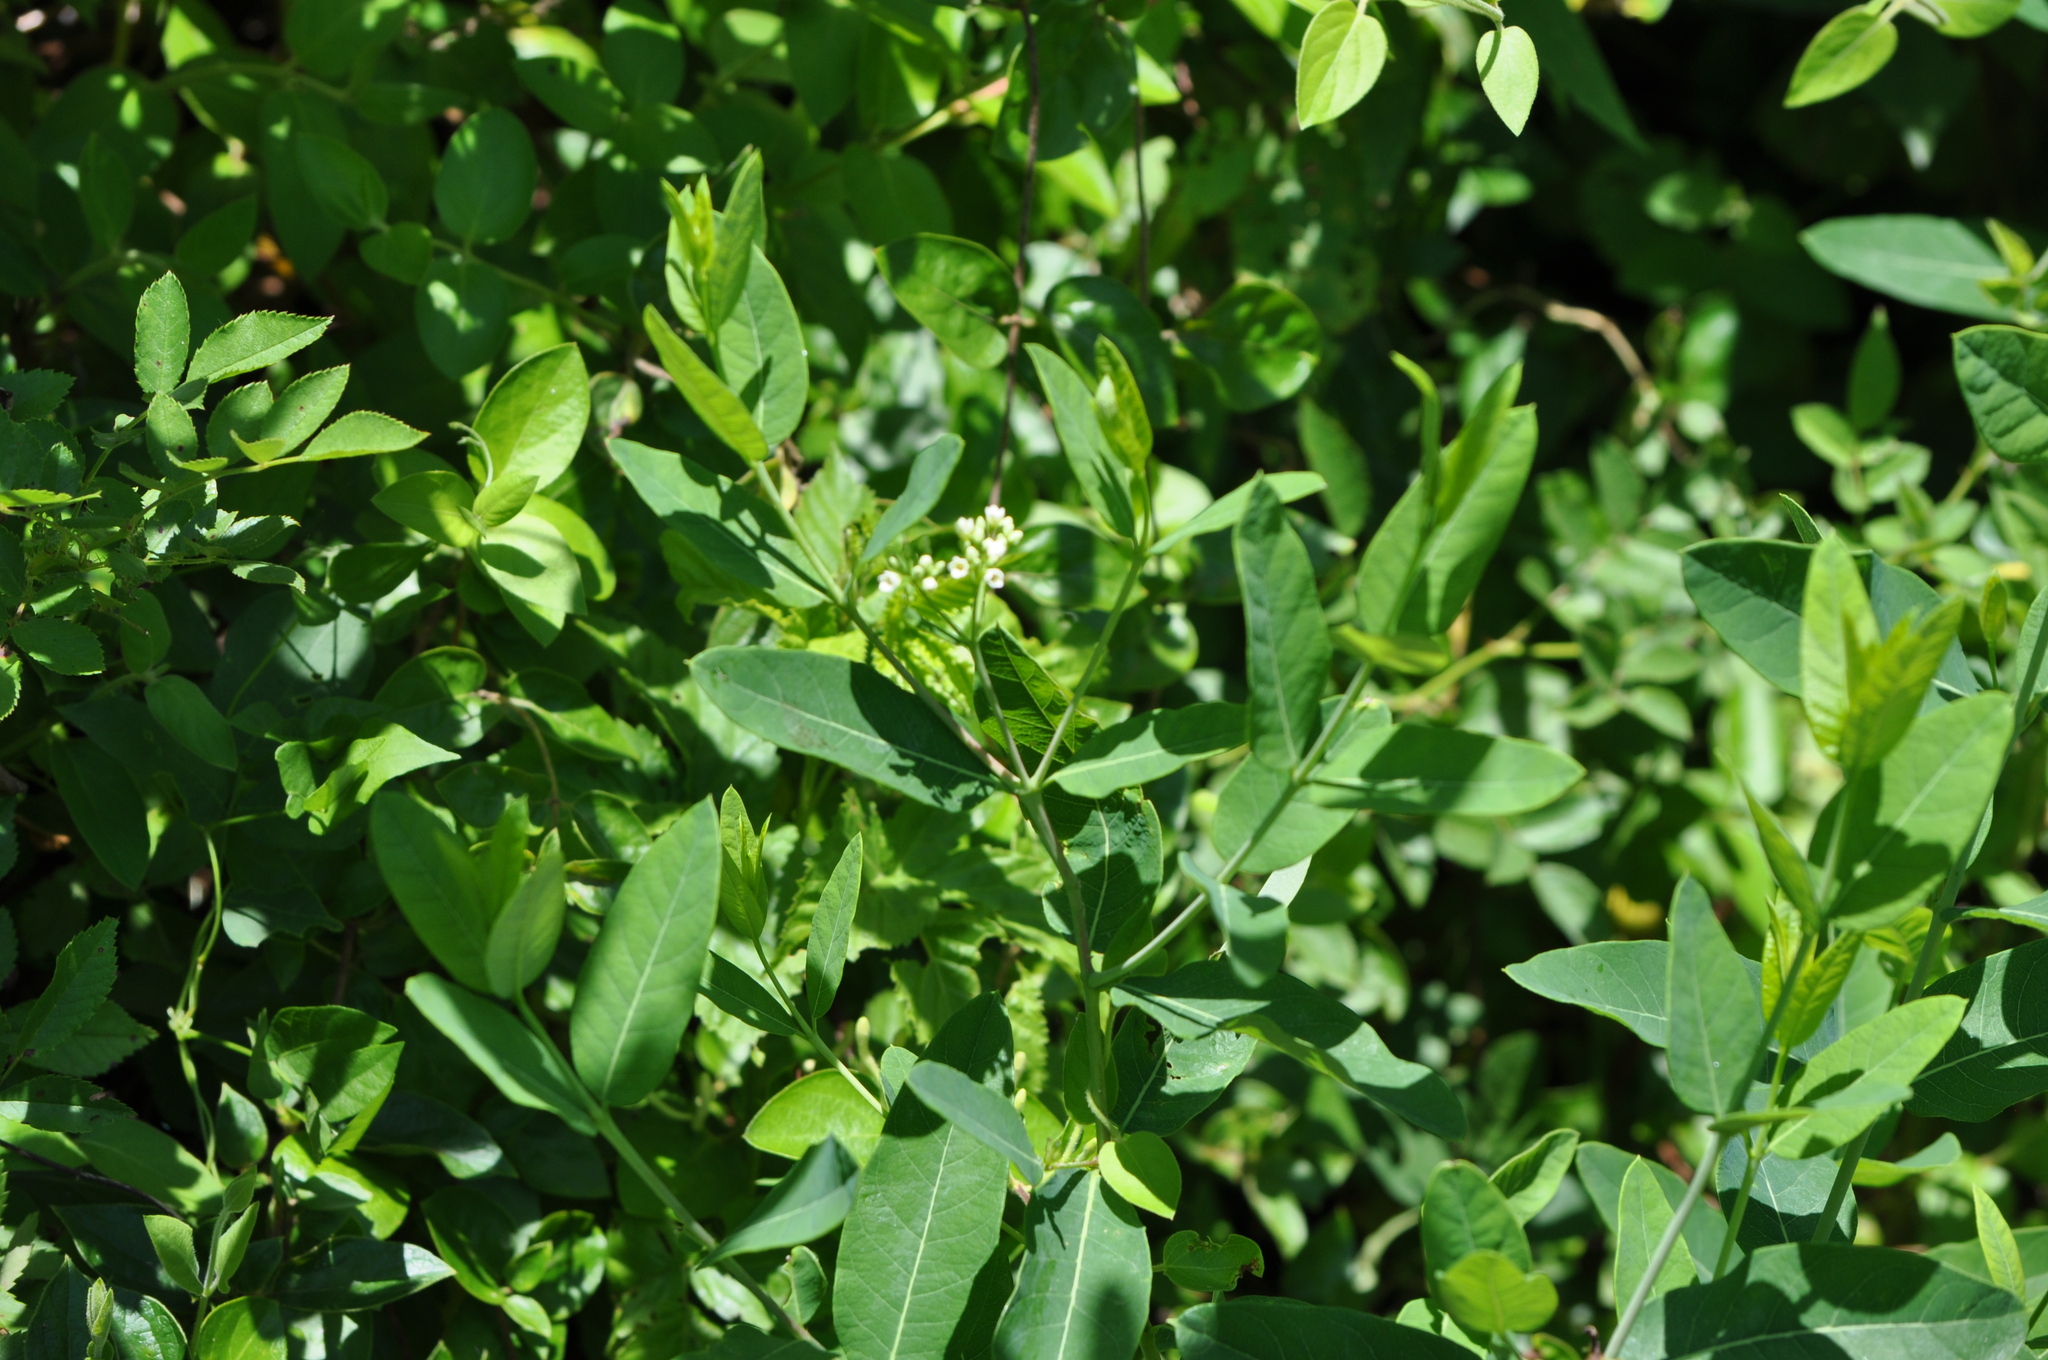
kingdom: Plantae
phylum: Tracheophyta
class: Magnoliopsida
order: Gentianales
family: Apocynaceae
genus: Apocynum
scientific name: Apocynum cannabinum
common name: Hemp dogbane
